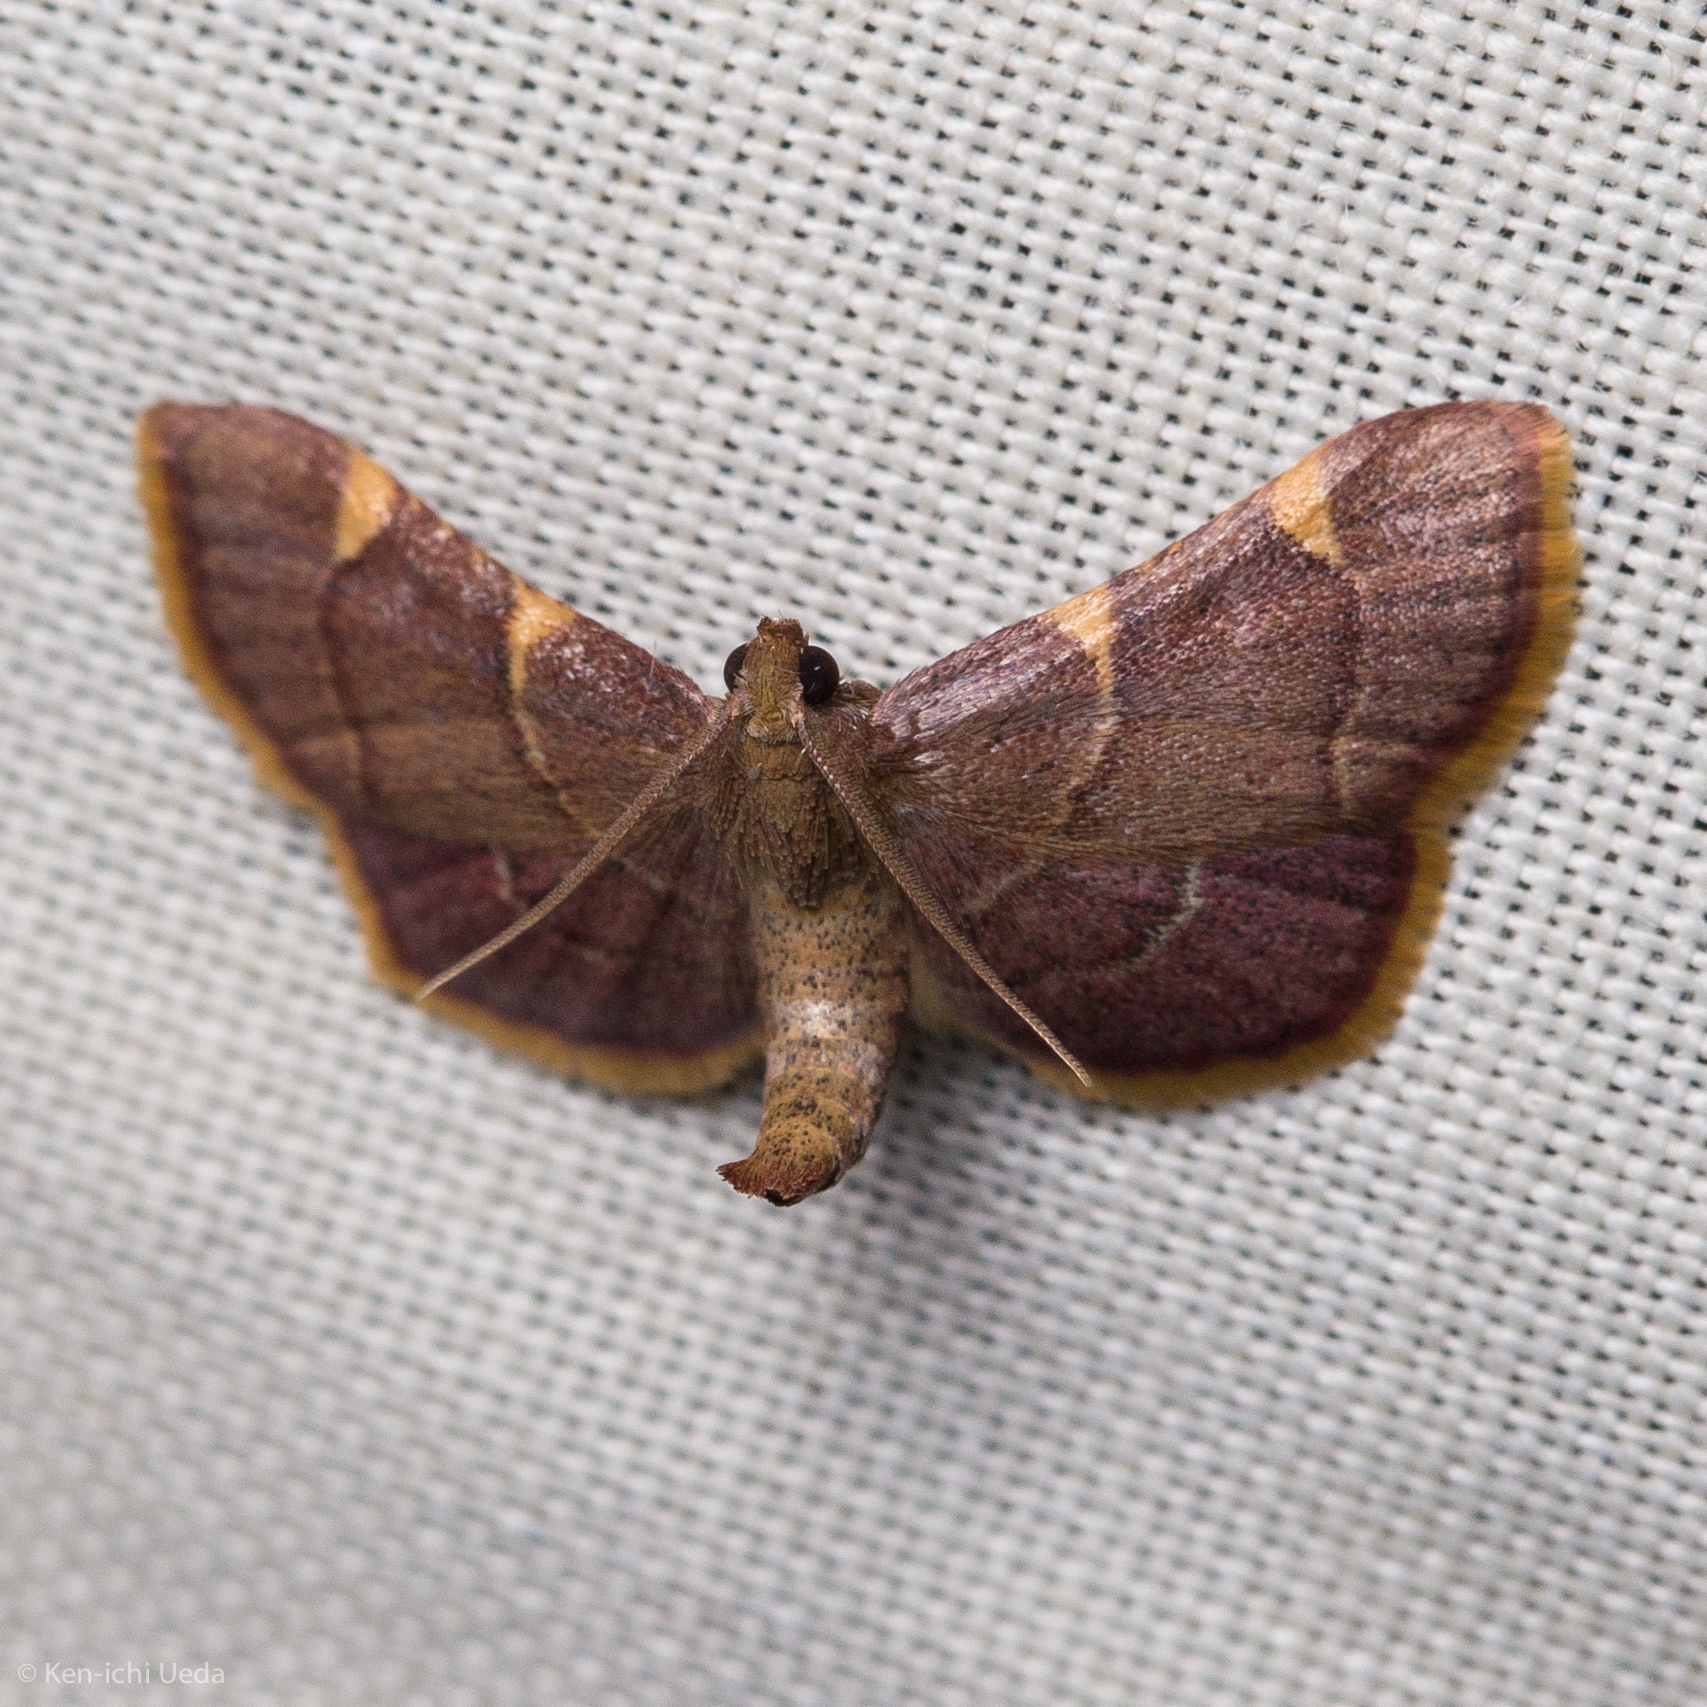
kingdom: Animalia
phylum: Arthropoda
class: Insecta
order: Lepidoptera
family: Pyralidae
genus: Hypsopygia
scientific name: Hypsopygia olinalis
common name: Yellow-fringed dolichomia moth
